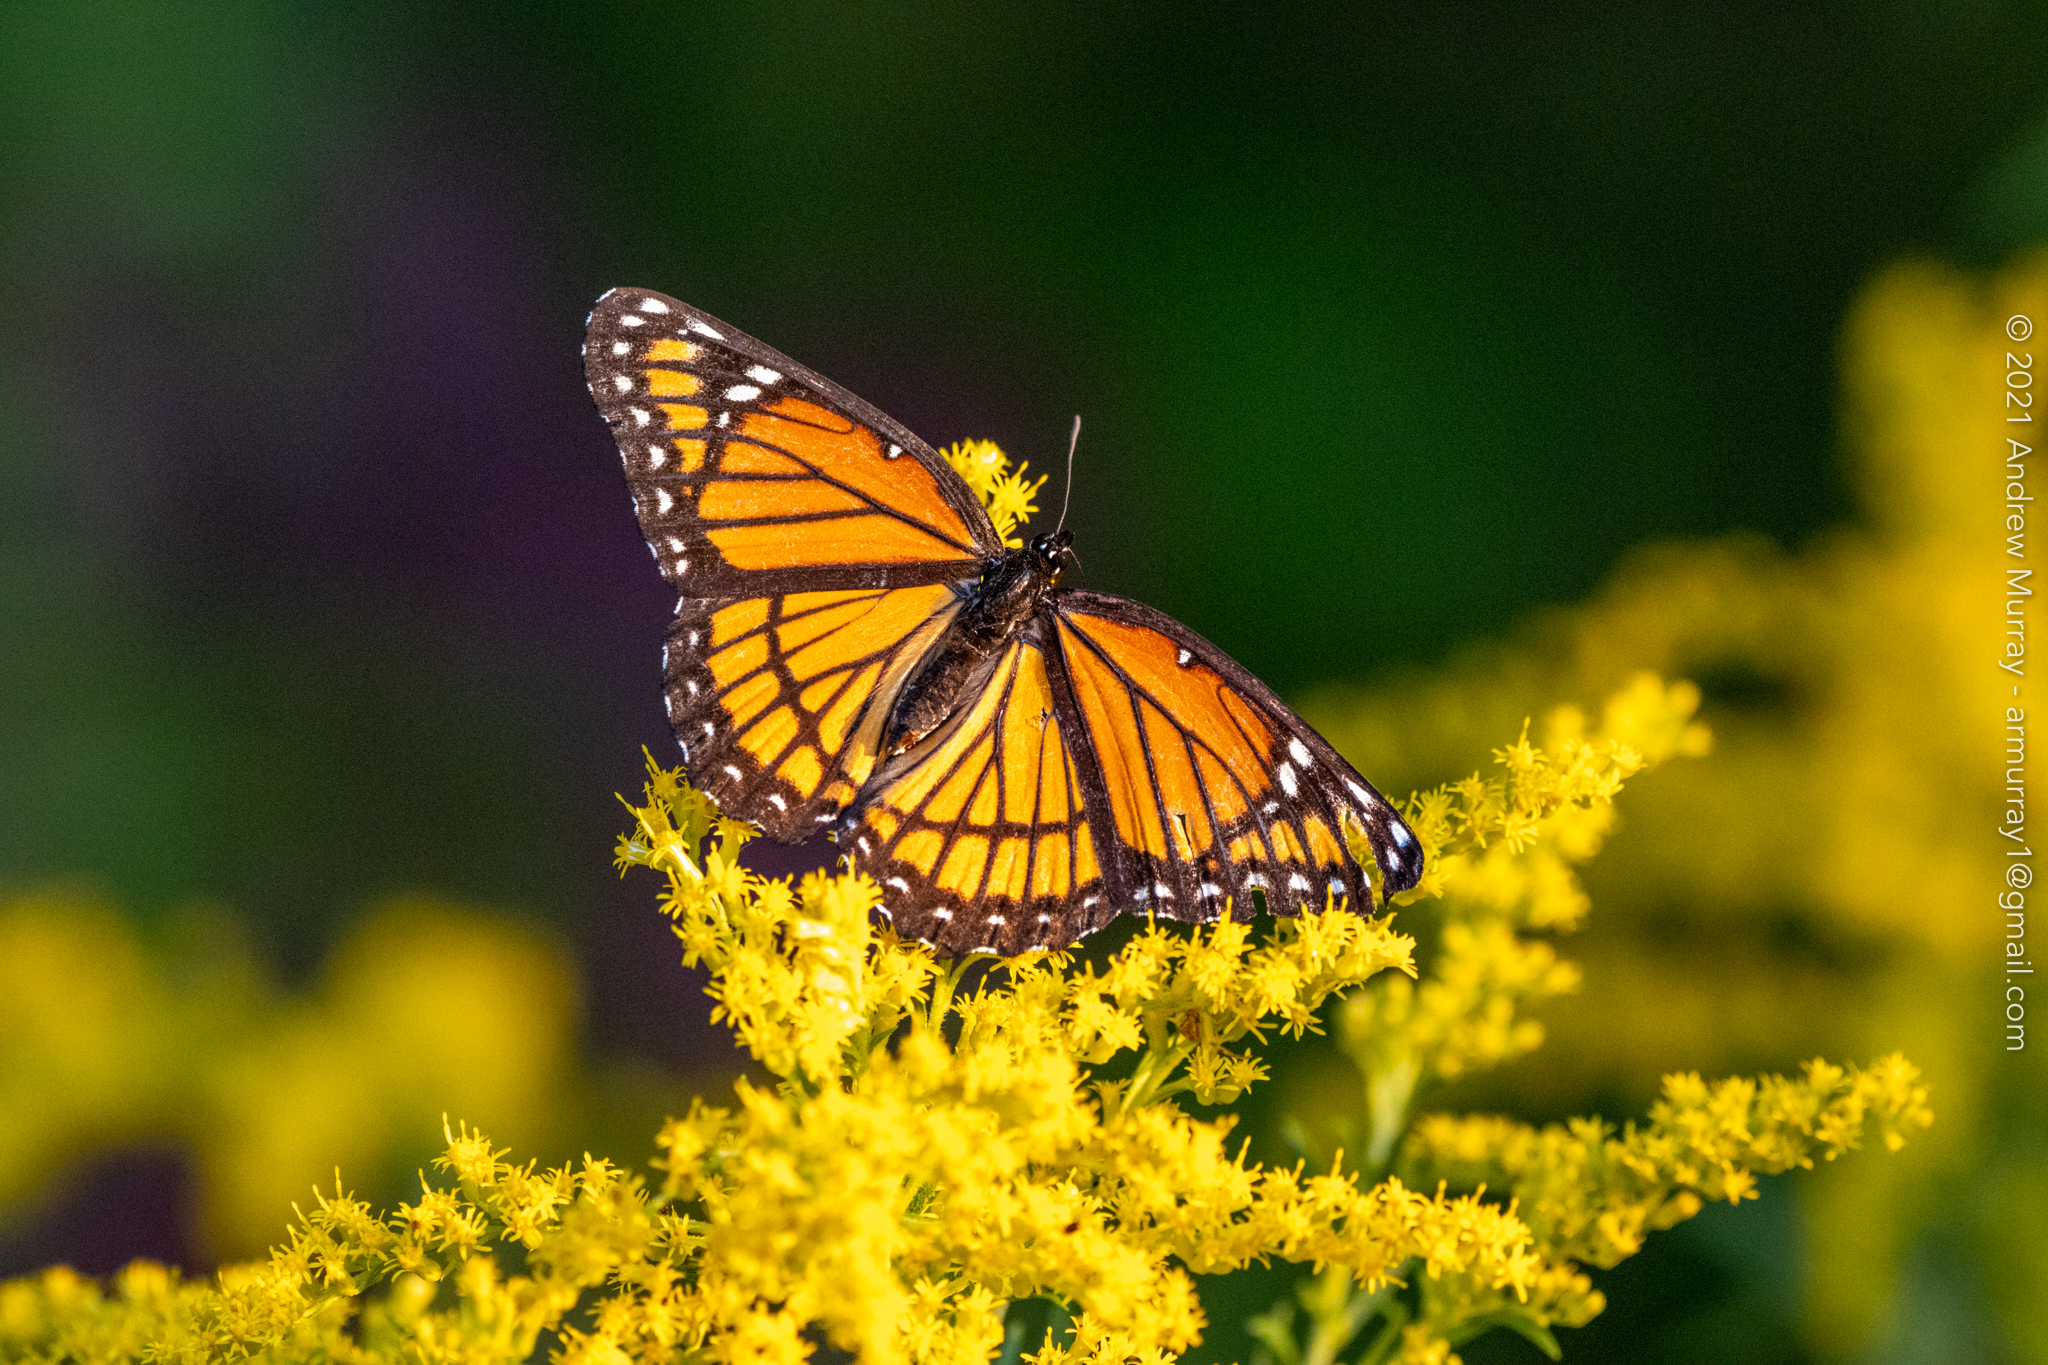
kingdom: Animalia
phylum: Arthropoda
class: Insecta
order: Lepidoptera
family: Nymphalidae
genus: Limenitis
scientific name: Limenitis archippus
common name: Viceroy
